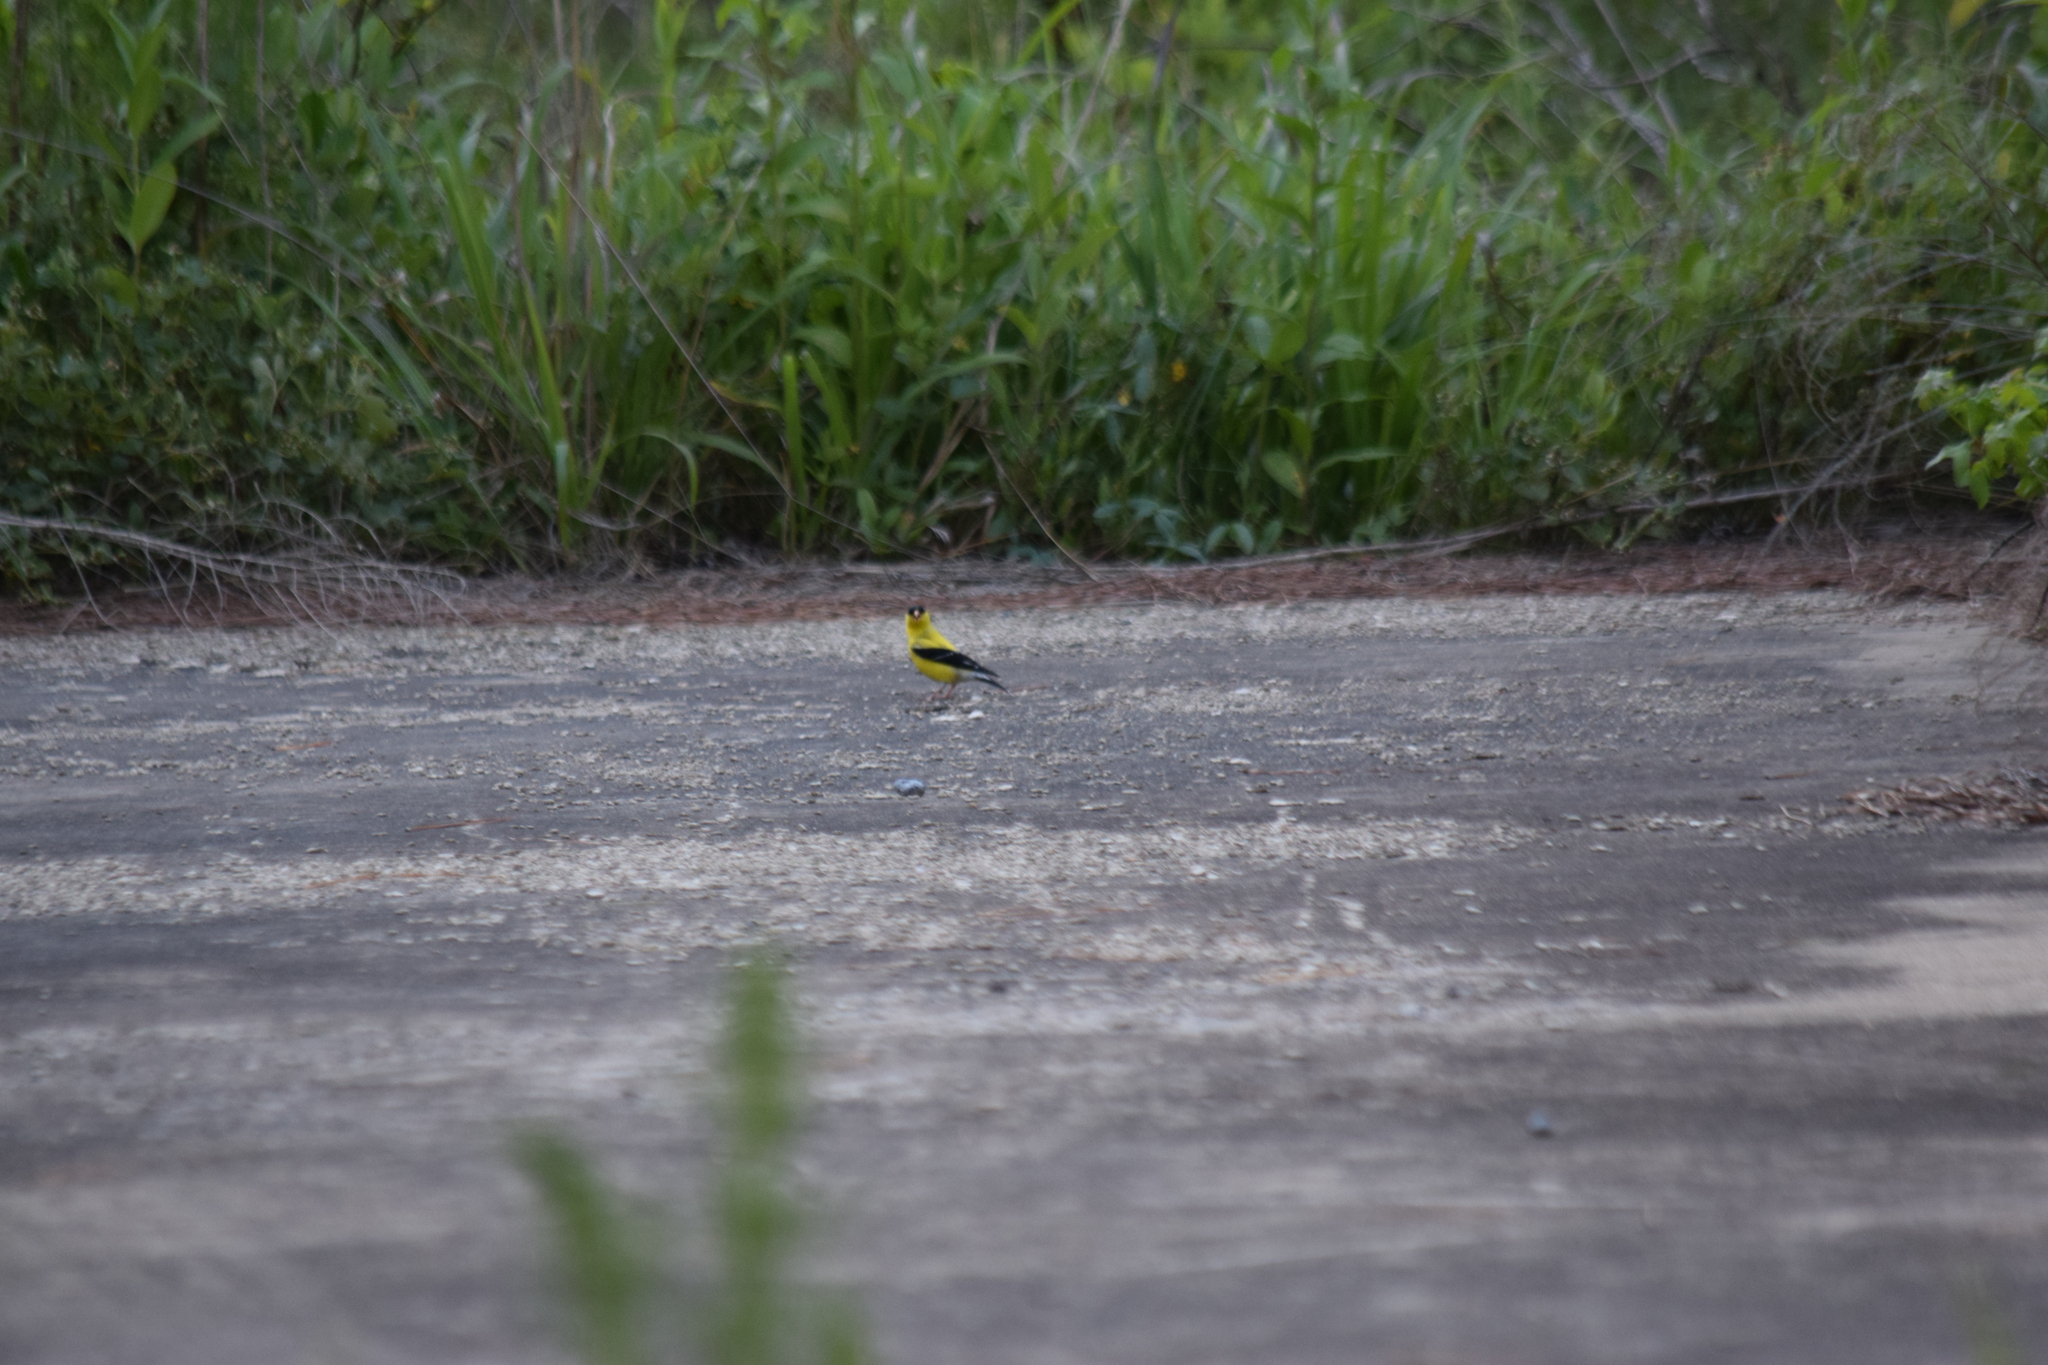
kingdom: Animalia
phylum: Chordata
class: Aves
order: Passeriformes
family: Fringillidae
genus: Spinus
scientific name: Spinus tristis
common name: American goldfinch
